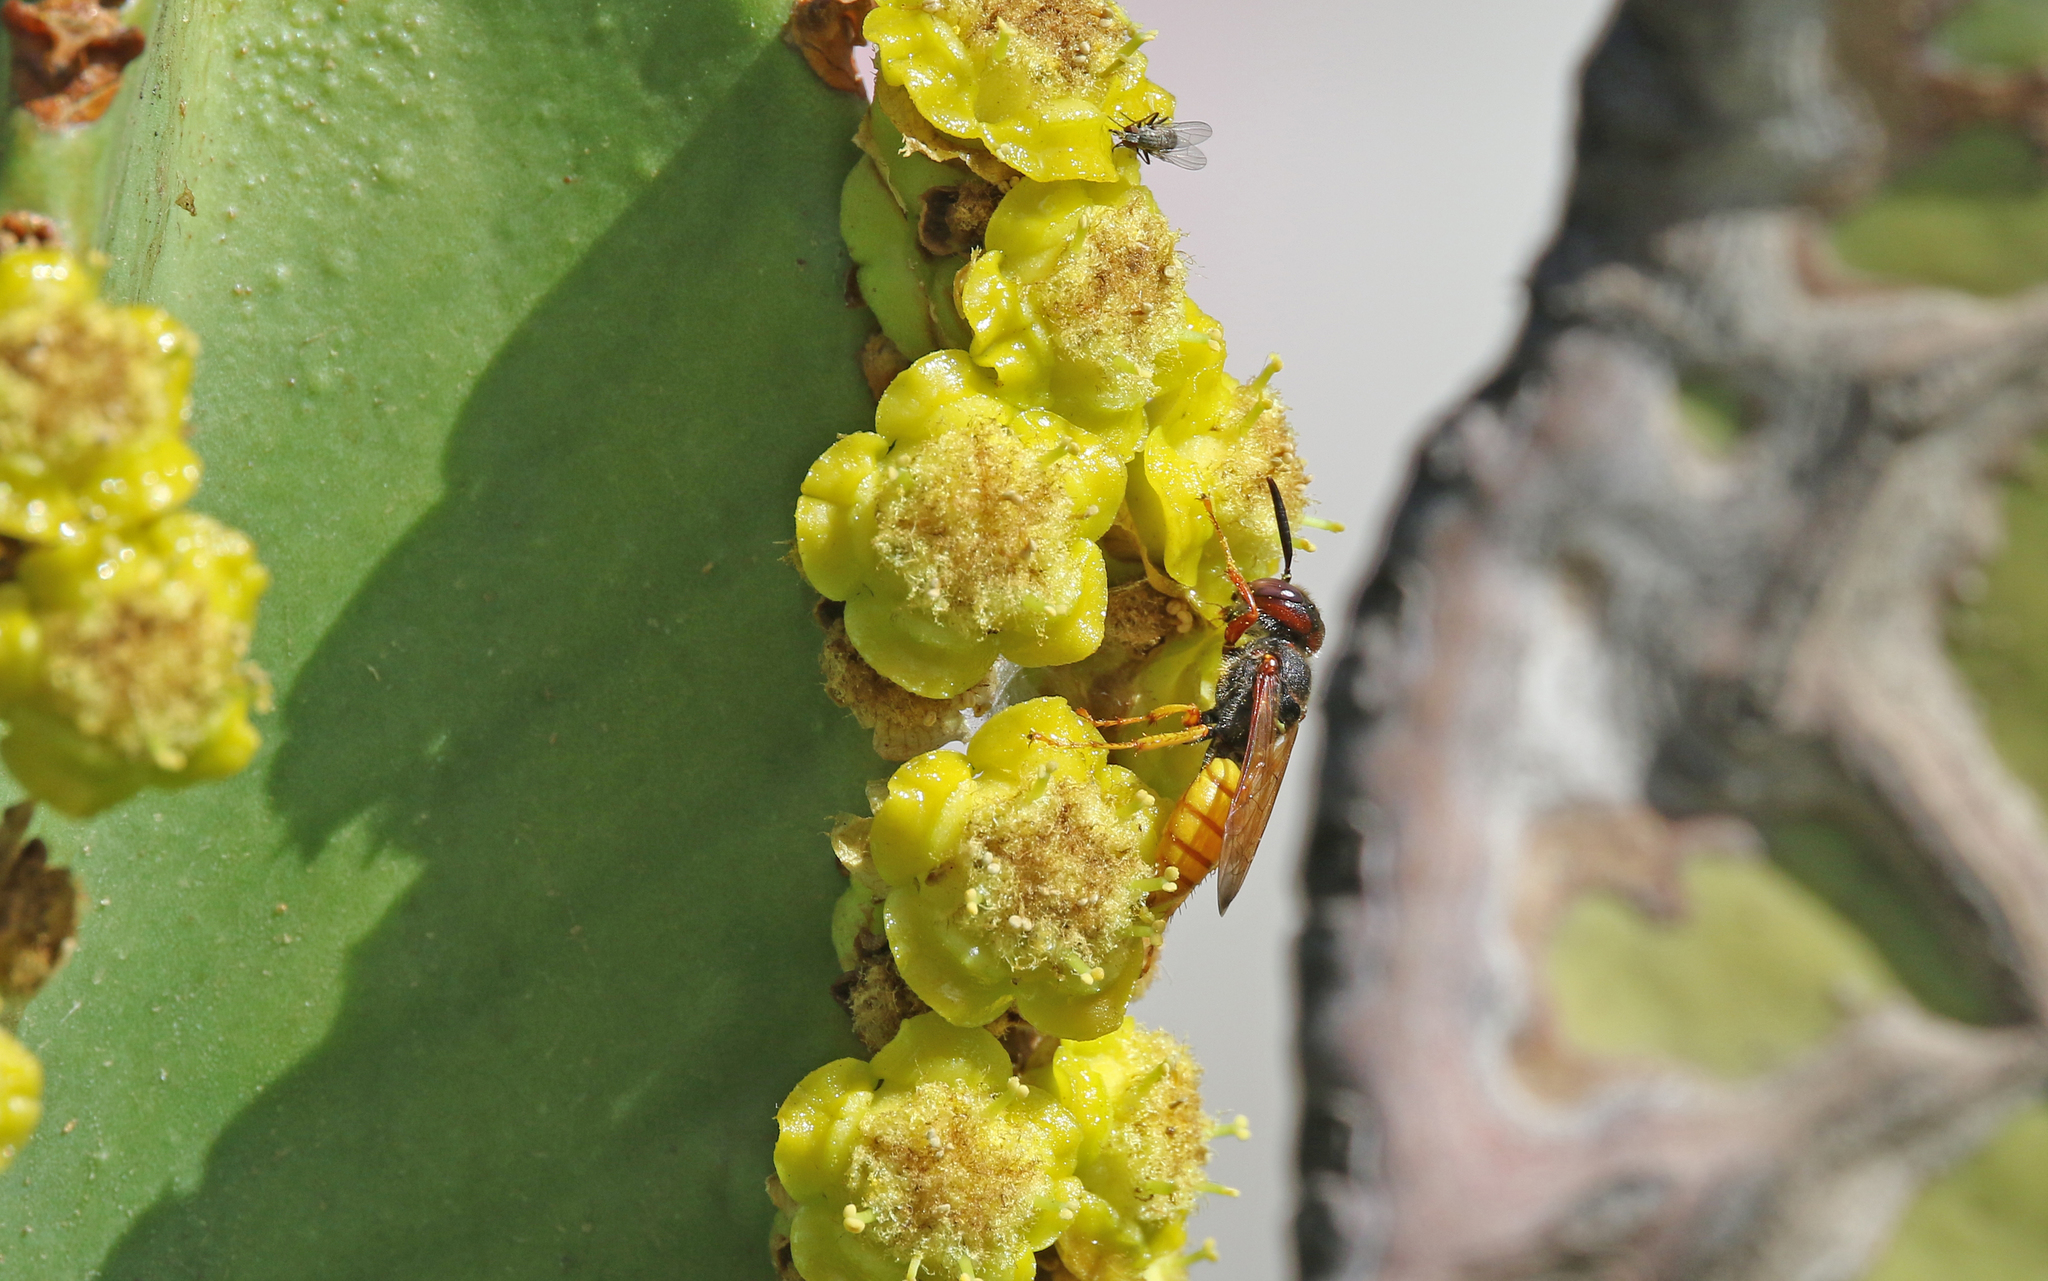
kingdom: Animalia
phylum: Arthropoda
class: Insecta
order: Hymenoptera
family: Crabronidae
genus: Philanthus
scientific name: Philanthus triangulum
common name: Bee wolf
